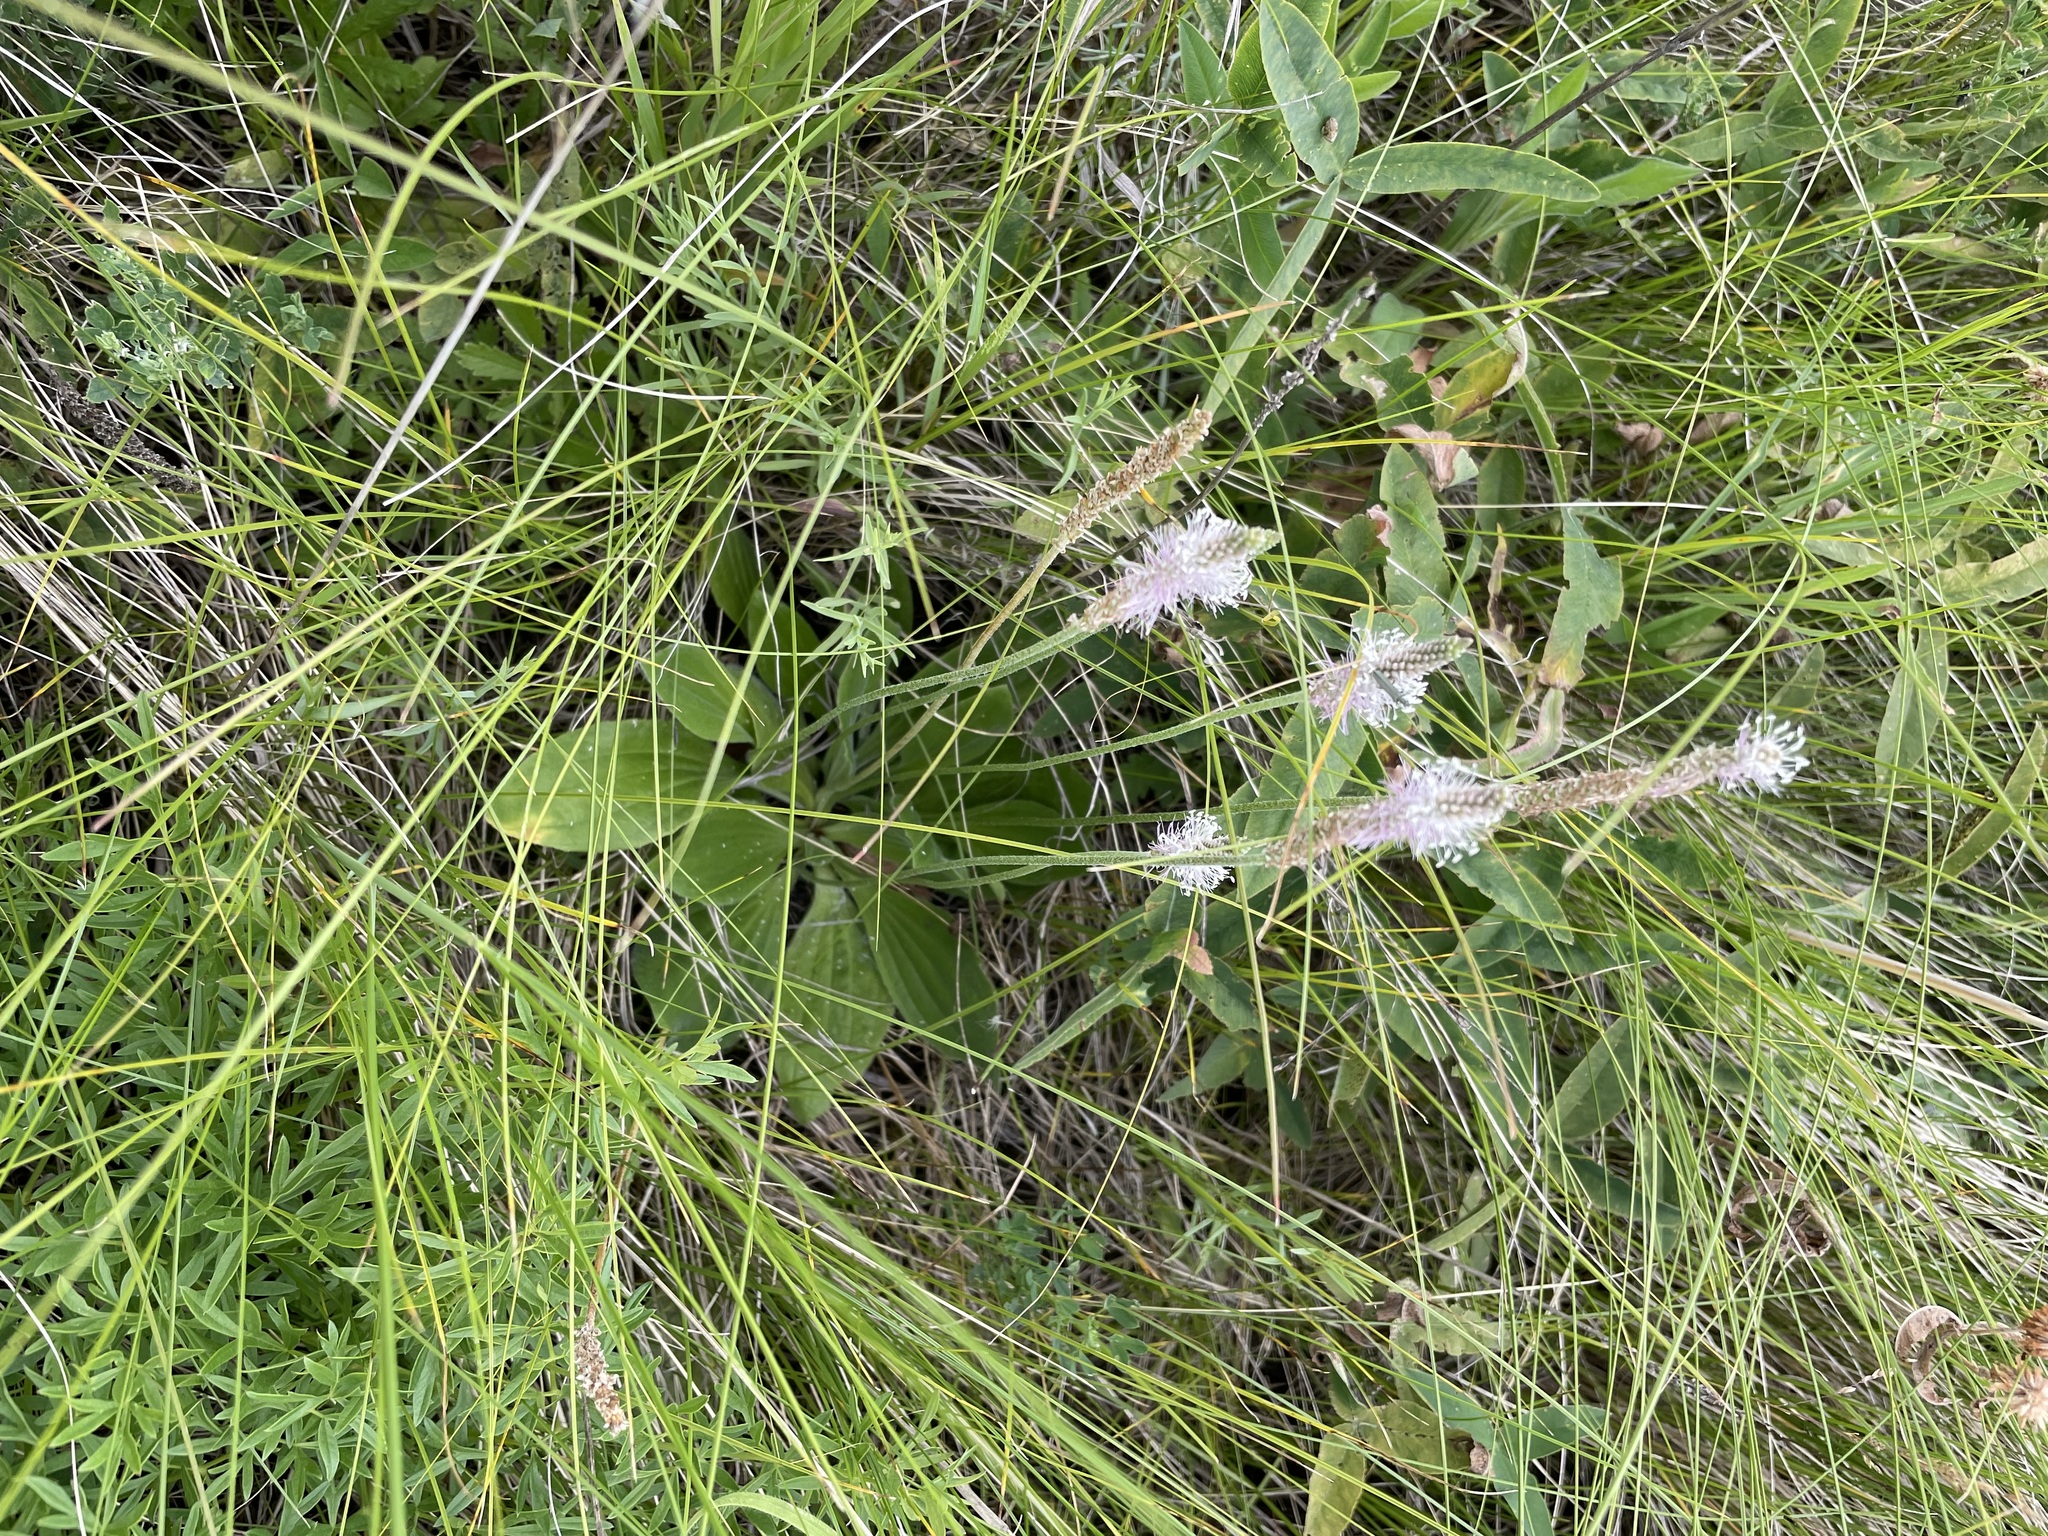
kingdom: Plantae
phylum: Tracheophyta
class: Magnoliopsida
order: Lamiales
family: Plantaginaceae
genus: Plantago
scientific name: Plantago media
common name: Hoary plantain
